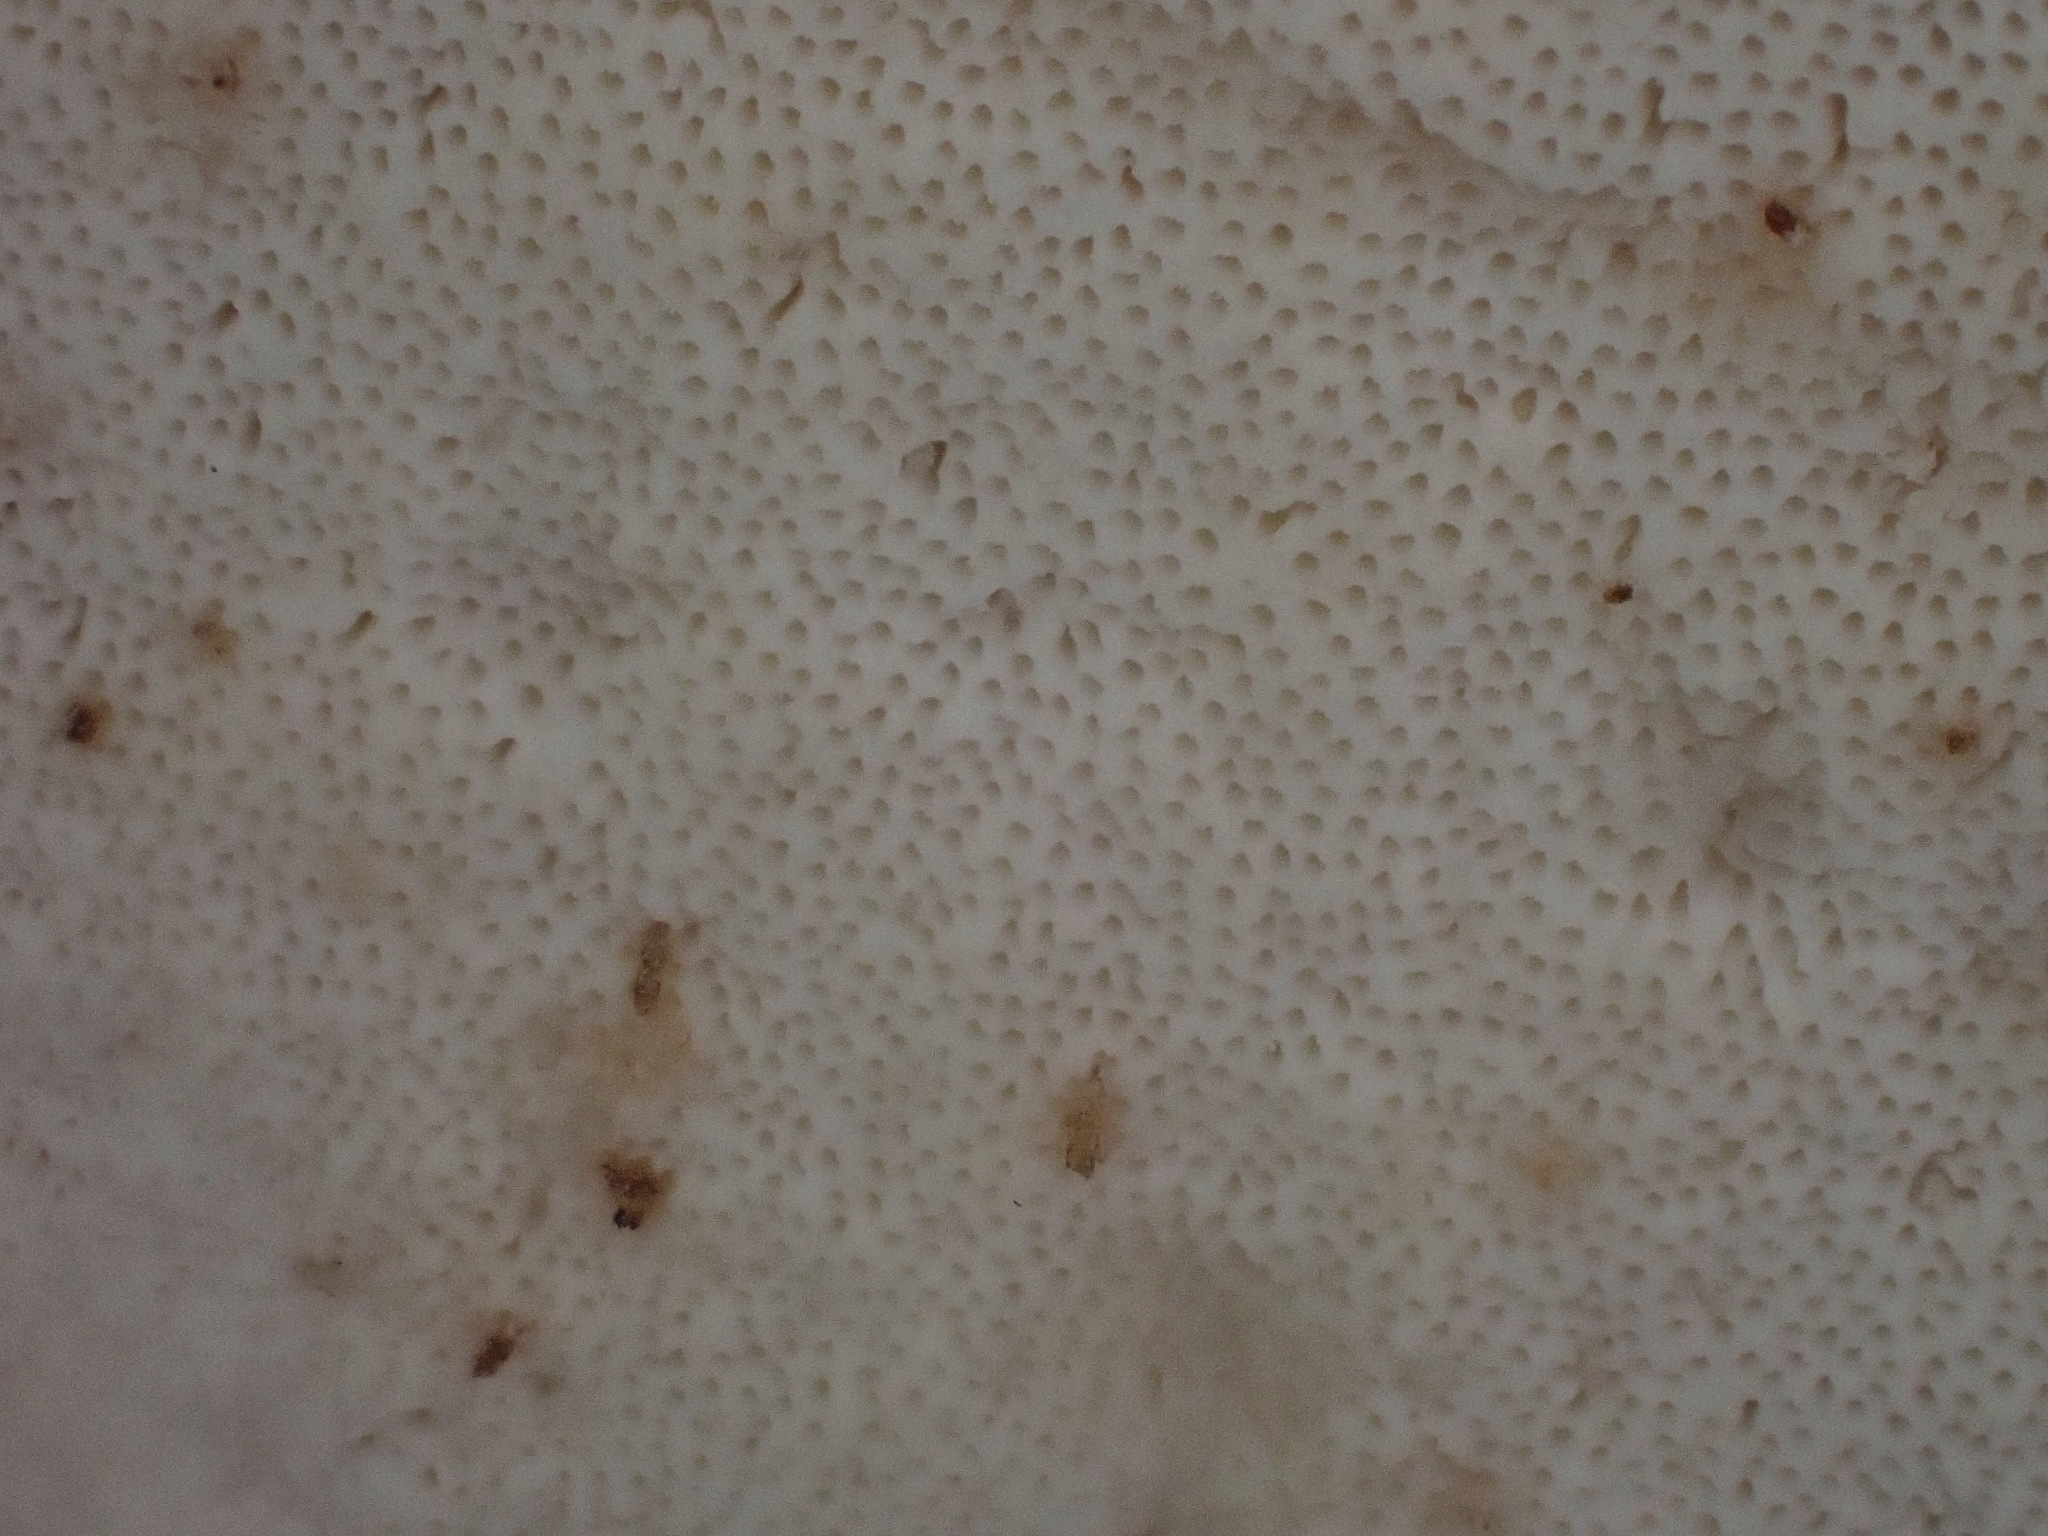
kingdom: Fungi
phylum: Basidiomycota
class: Agaricomycetes
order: Polyporales
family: Fomitopsidaceae
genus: Fomitopsis
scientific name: Fomitopsis betulina
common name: Birch polypore
